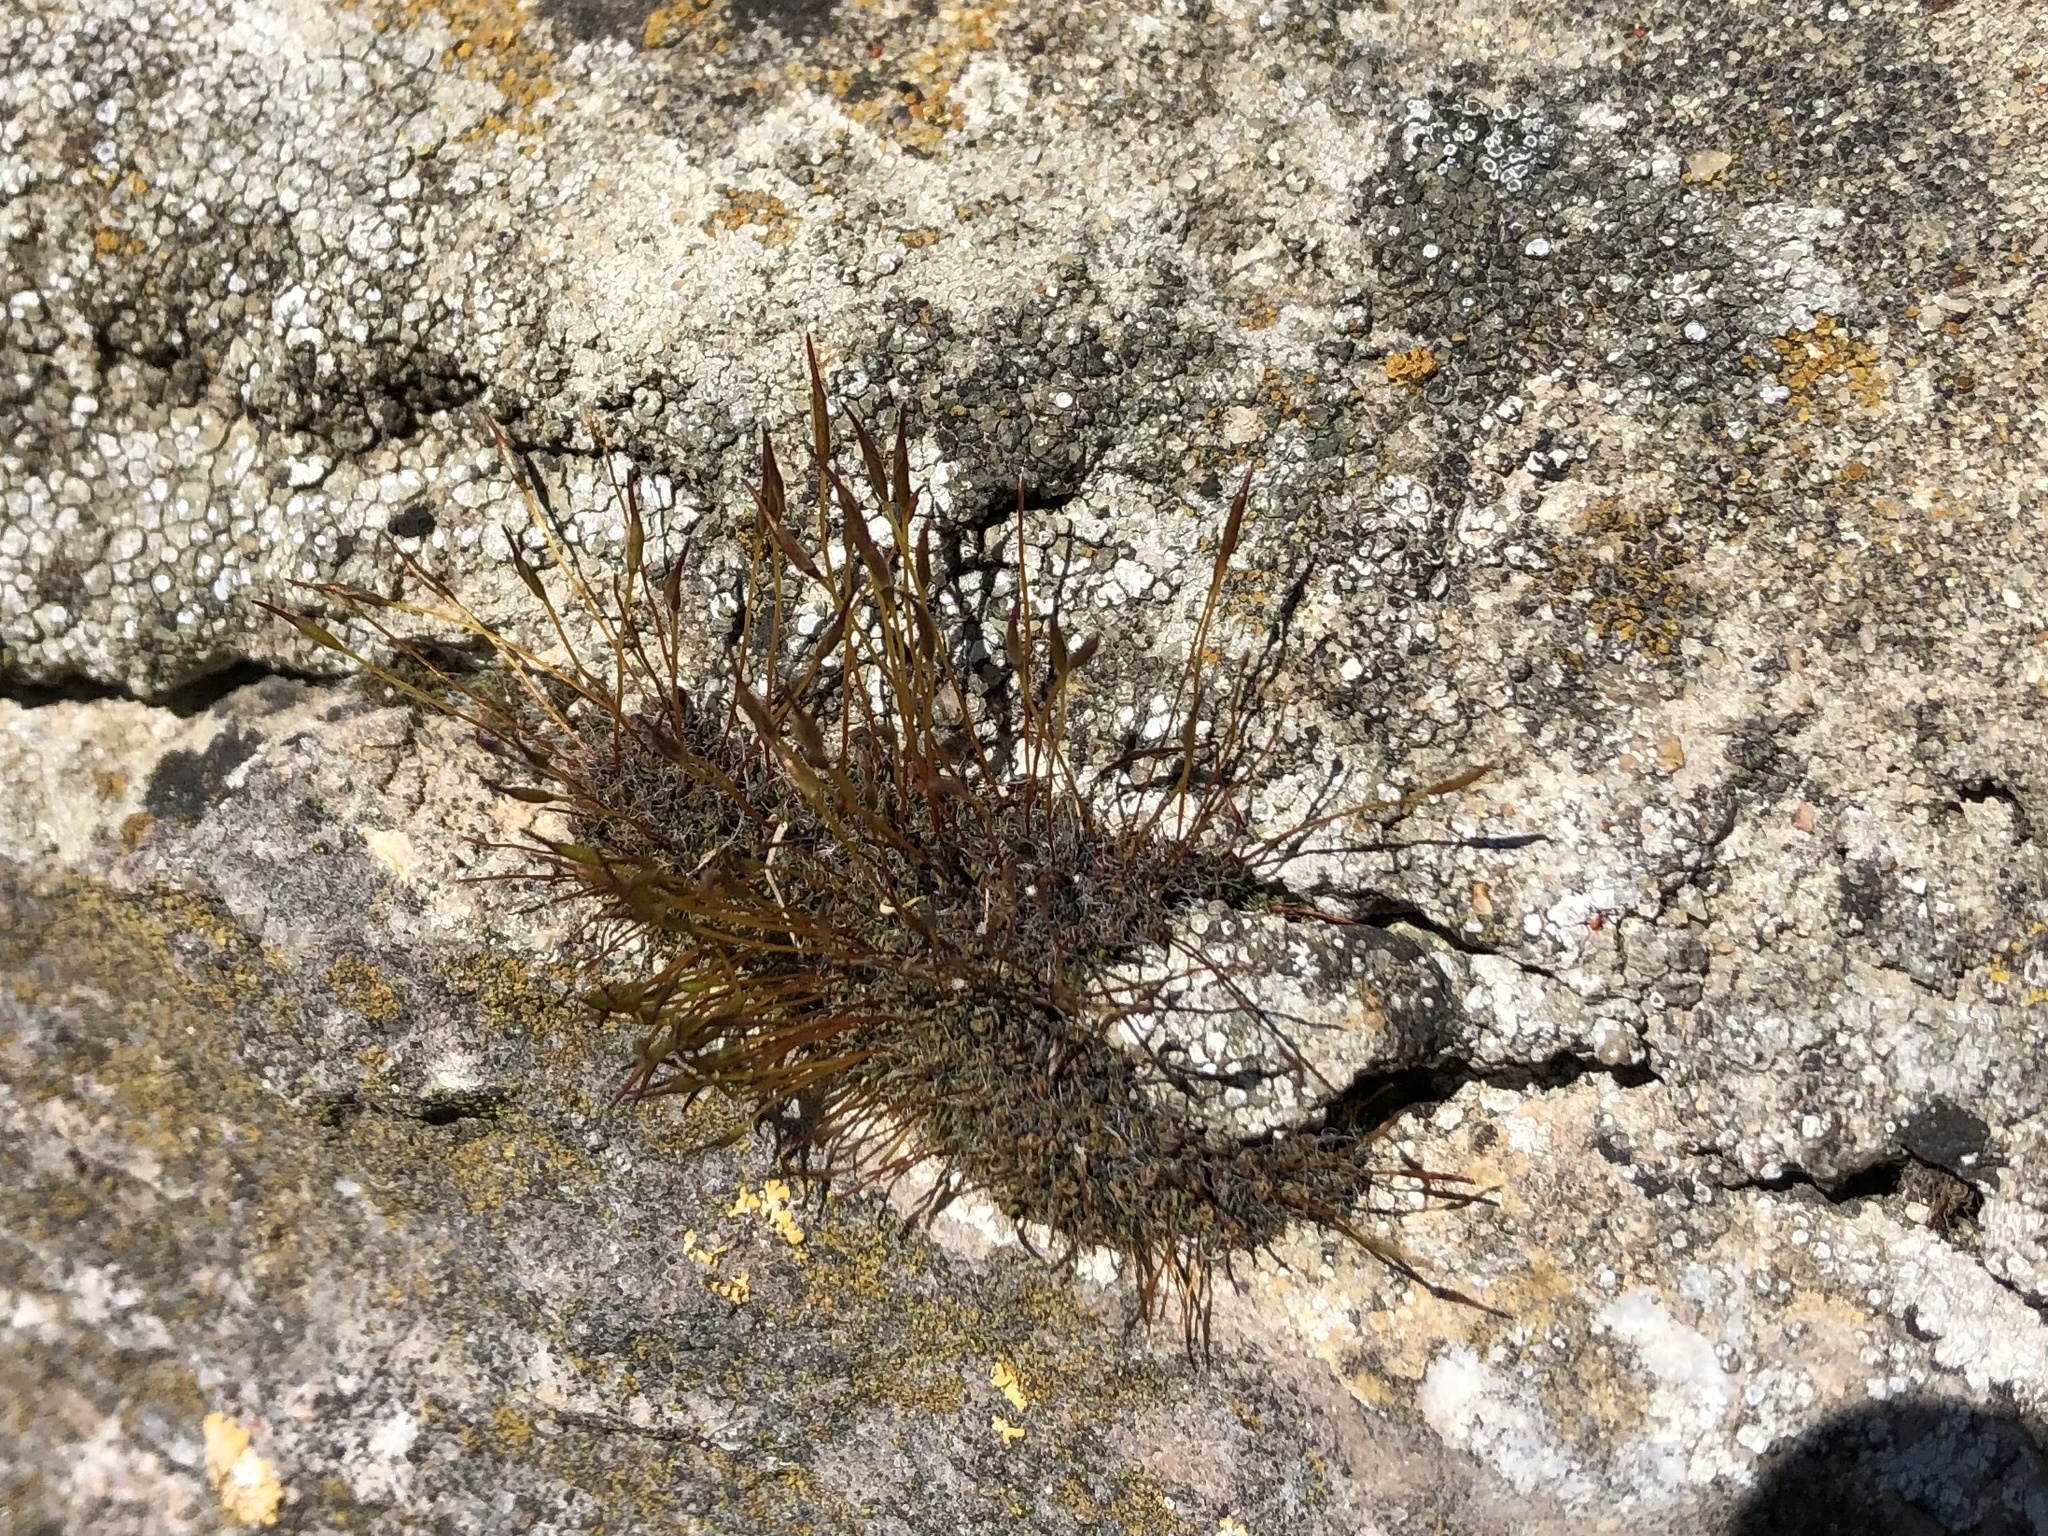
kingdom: Plantae
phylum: Bryophyta
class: Bryopsida
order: Pottiales
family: Pottiaceae
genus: Tortula
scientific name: Tortula muralis
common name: Wall screw-moss
